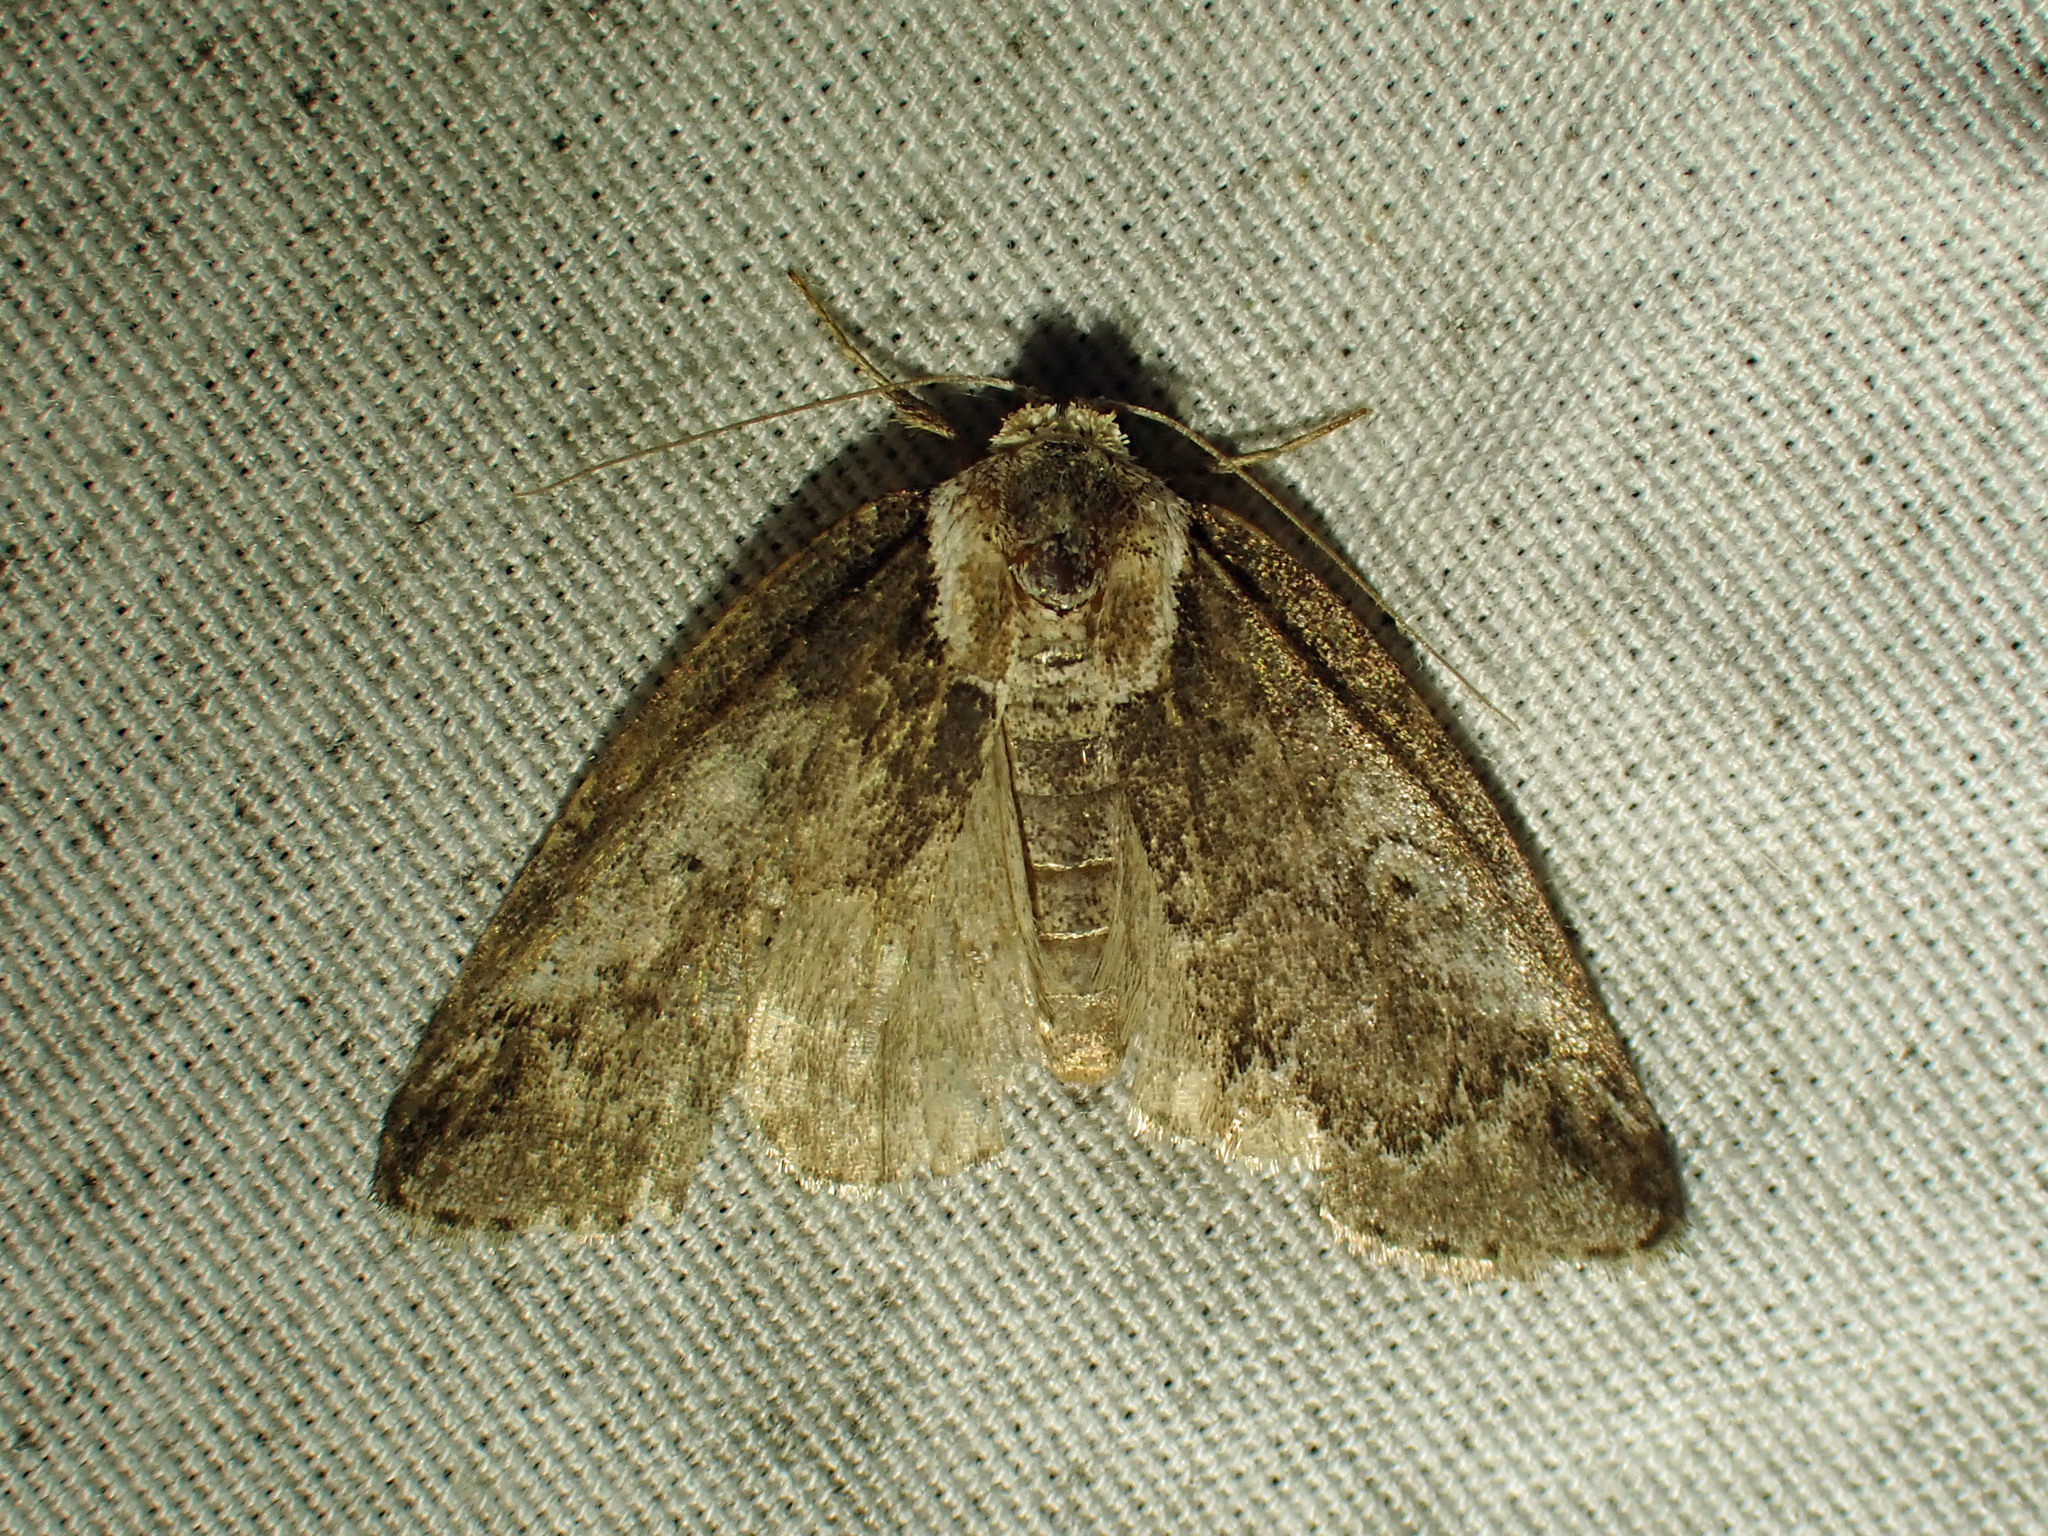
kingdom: Animalia
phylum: Arthropoda
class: Insecta
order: Lepidoptera
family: Nolidae
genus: Baileya
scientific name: Baileya ophthalmica
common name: Eyed baileya moth
